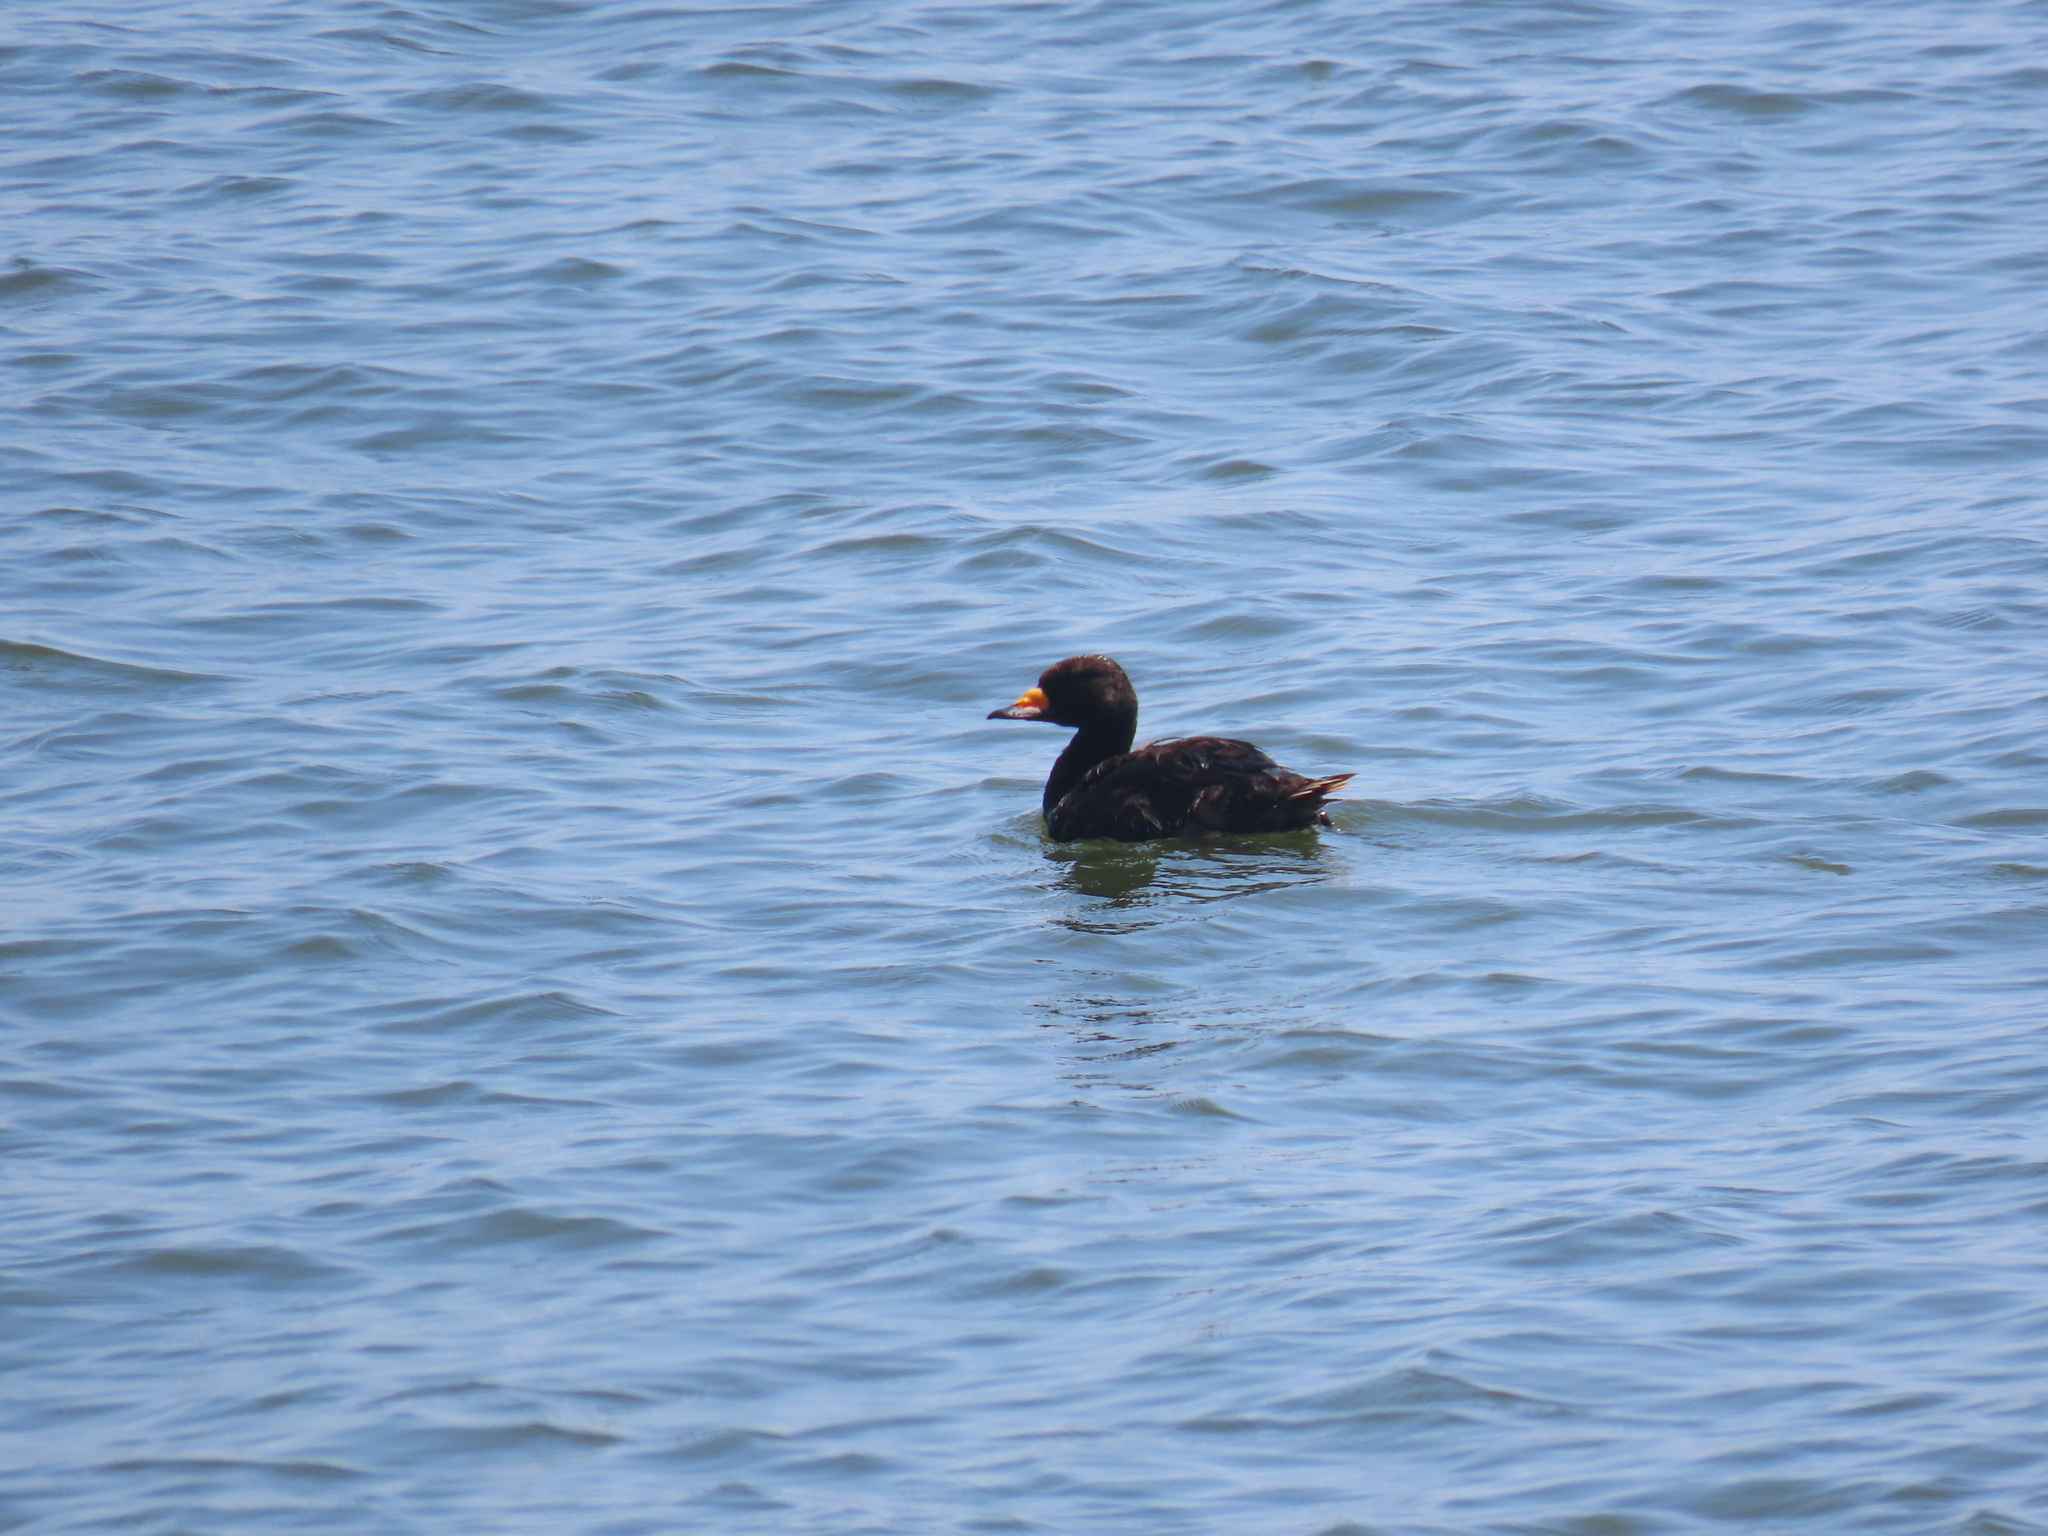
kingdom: Animalia
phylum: Chordata
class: Aves
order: Anseriformes
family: Anatidae
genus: Melanitta
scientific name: Melanitta americana
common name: Black scoter
